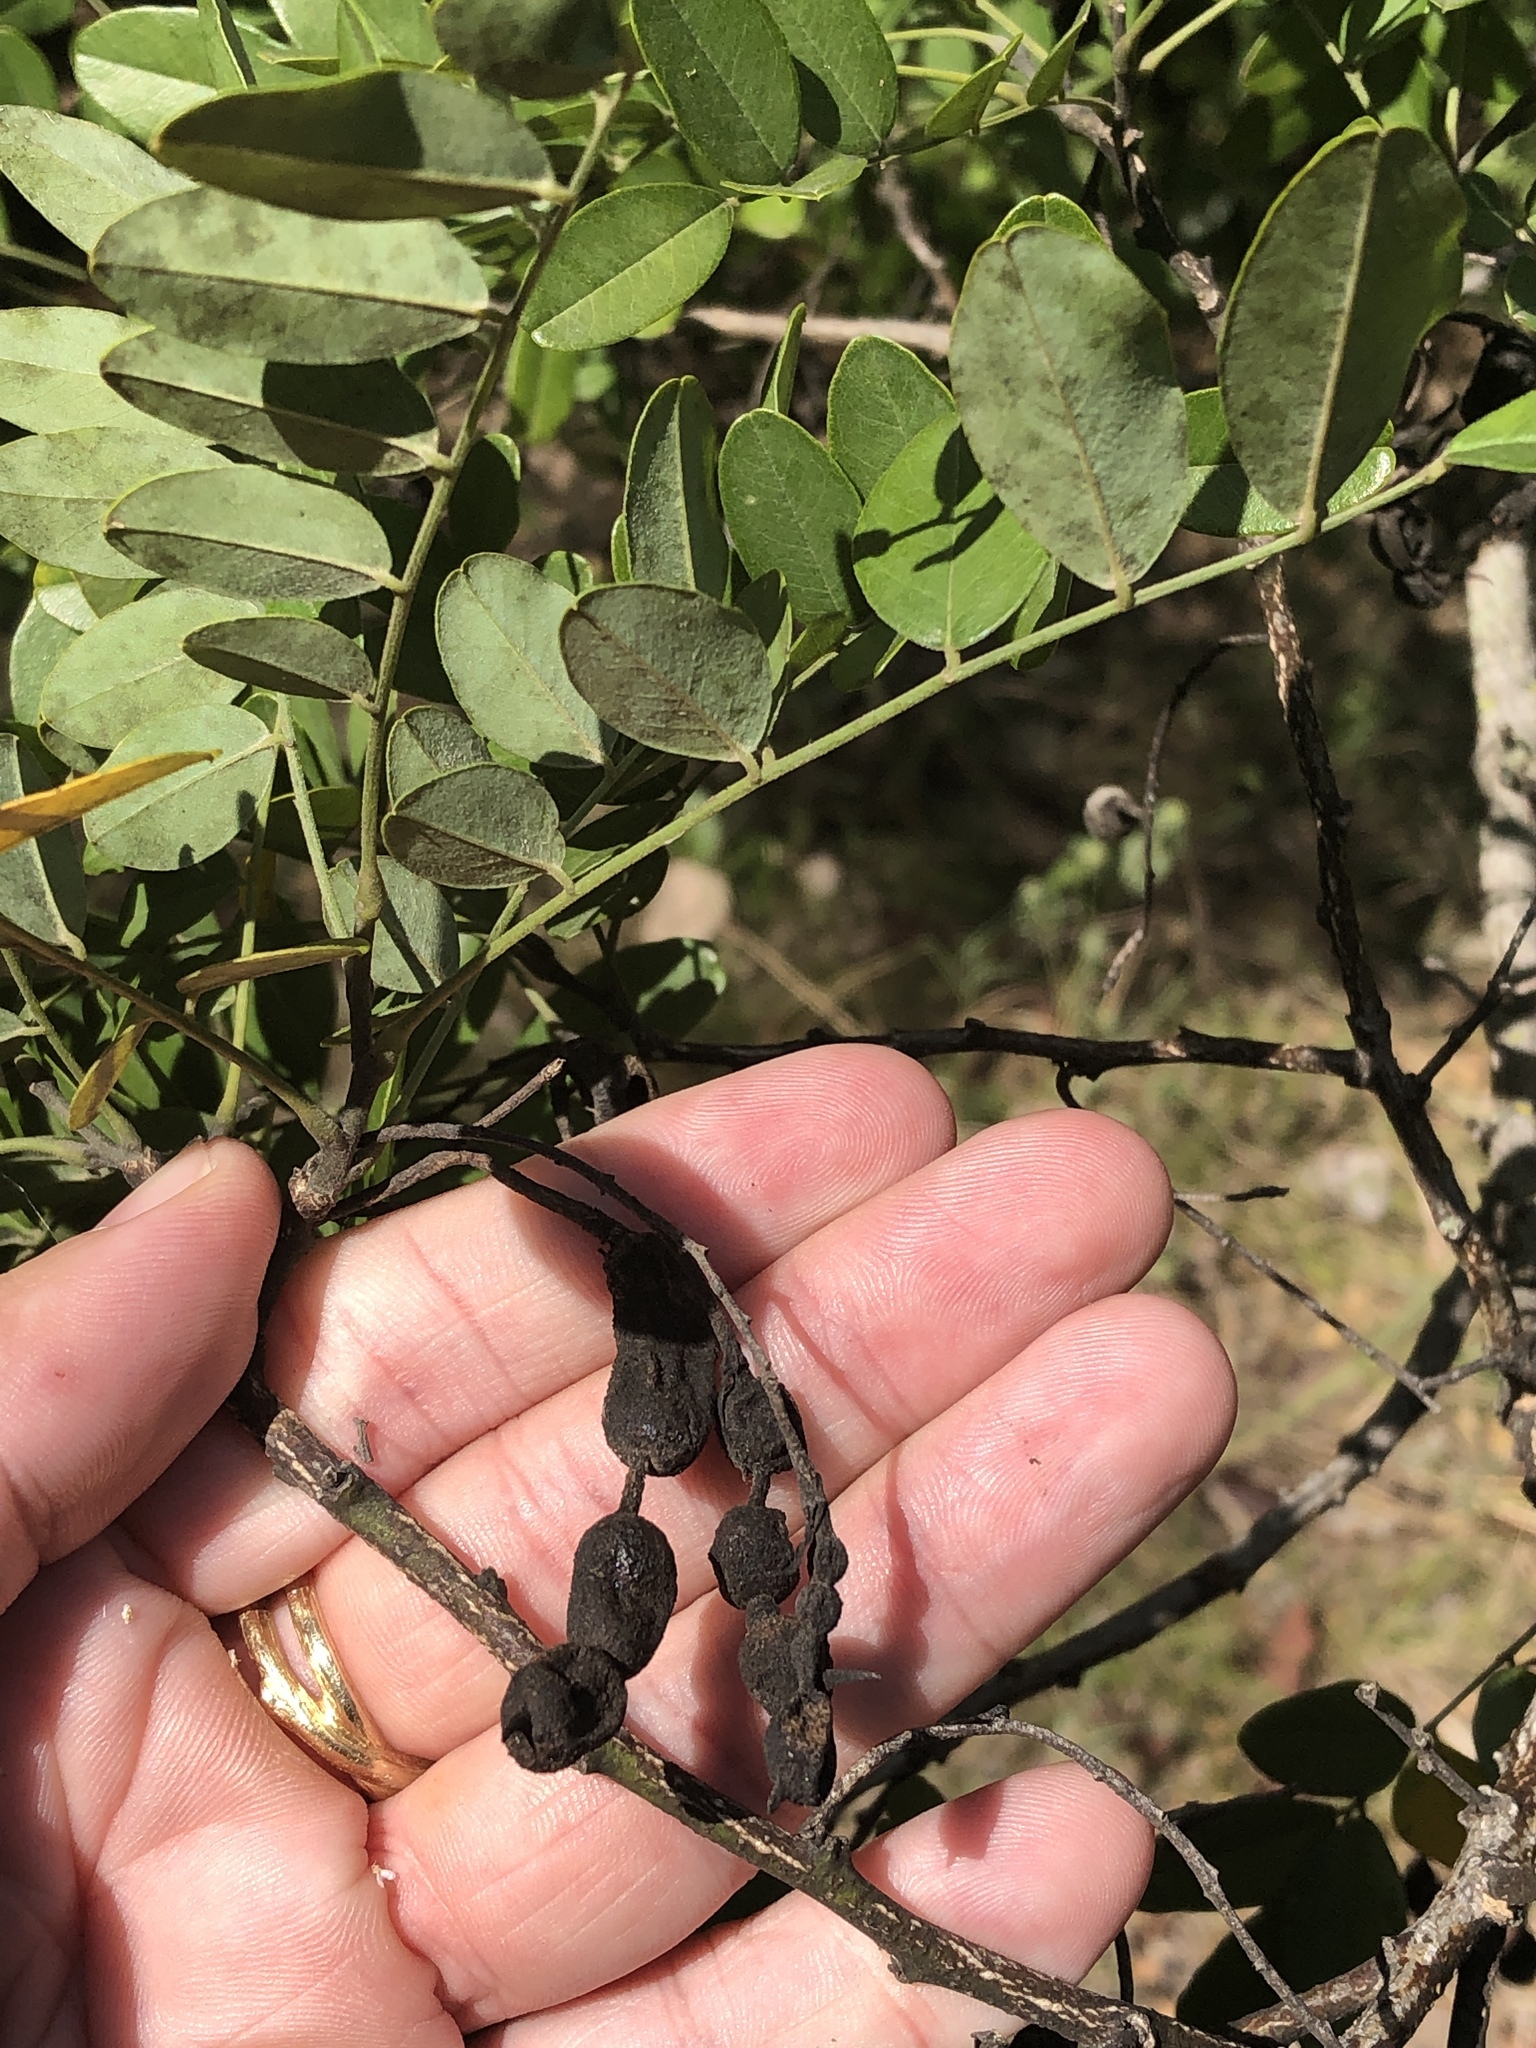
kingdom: Plantae
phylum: Tracheophyta
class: Magnoliopsida
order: Fabales
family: Fabaceae
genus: Styphnolobium
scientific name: Styphnolobium affine
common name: Texas sophora
